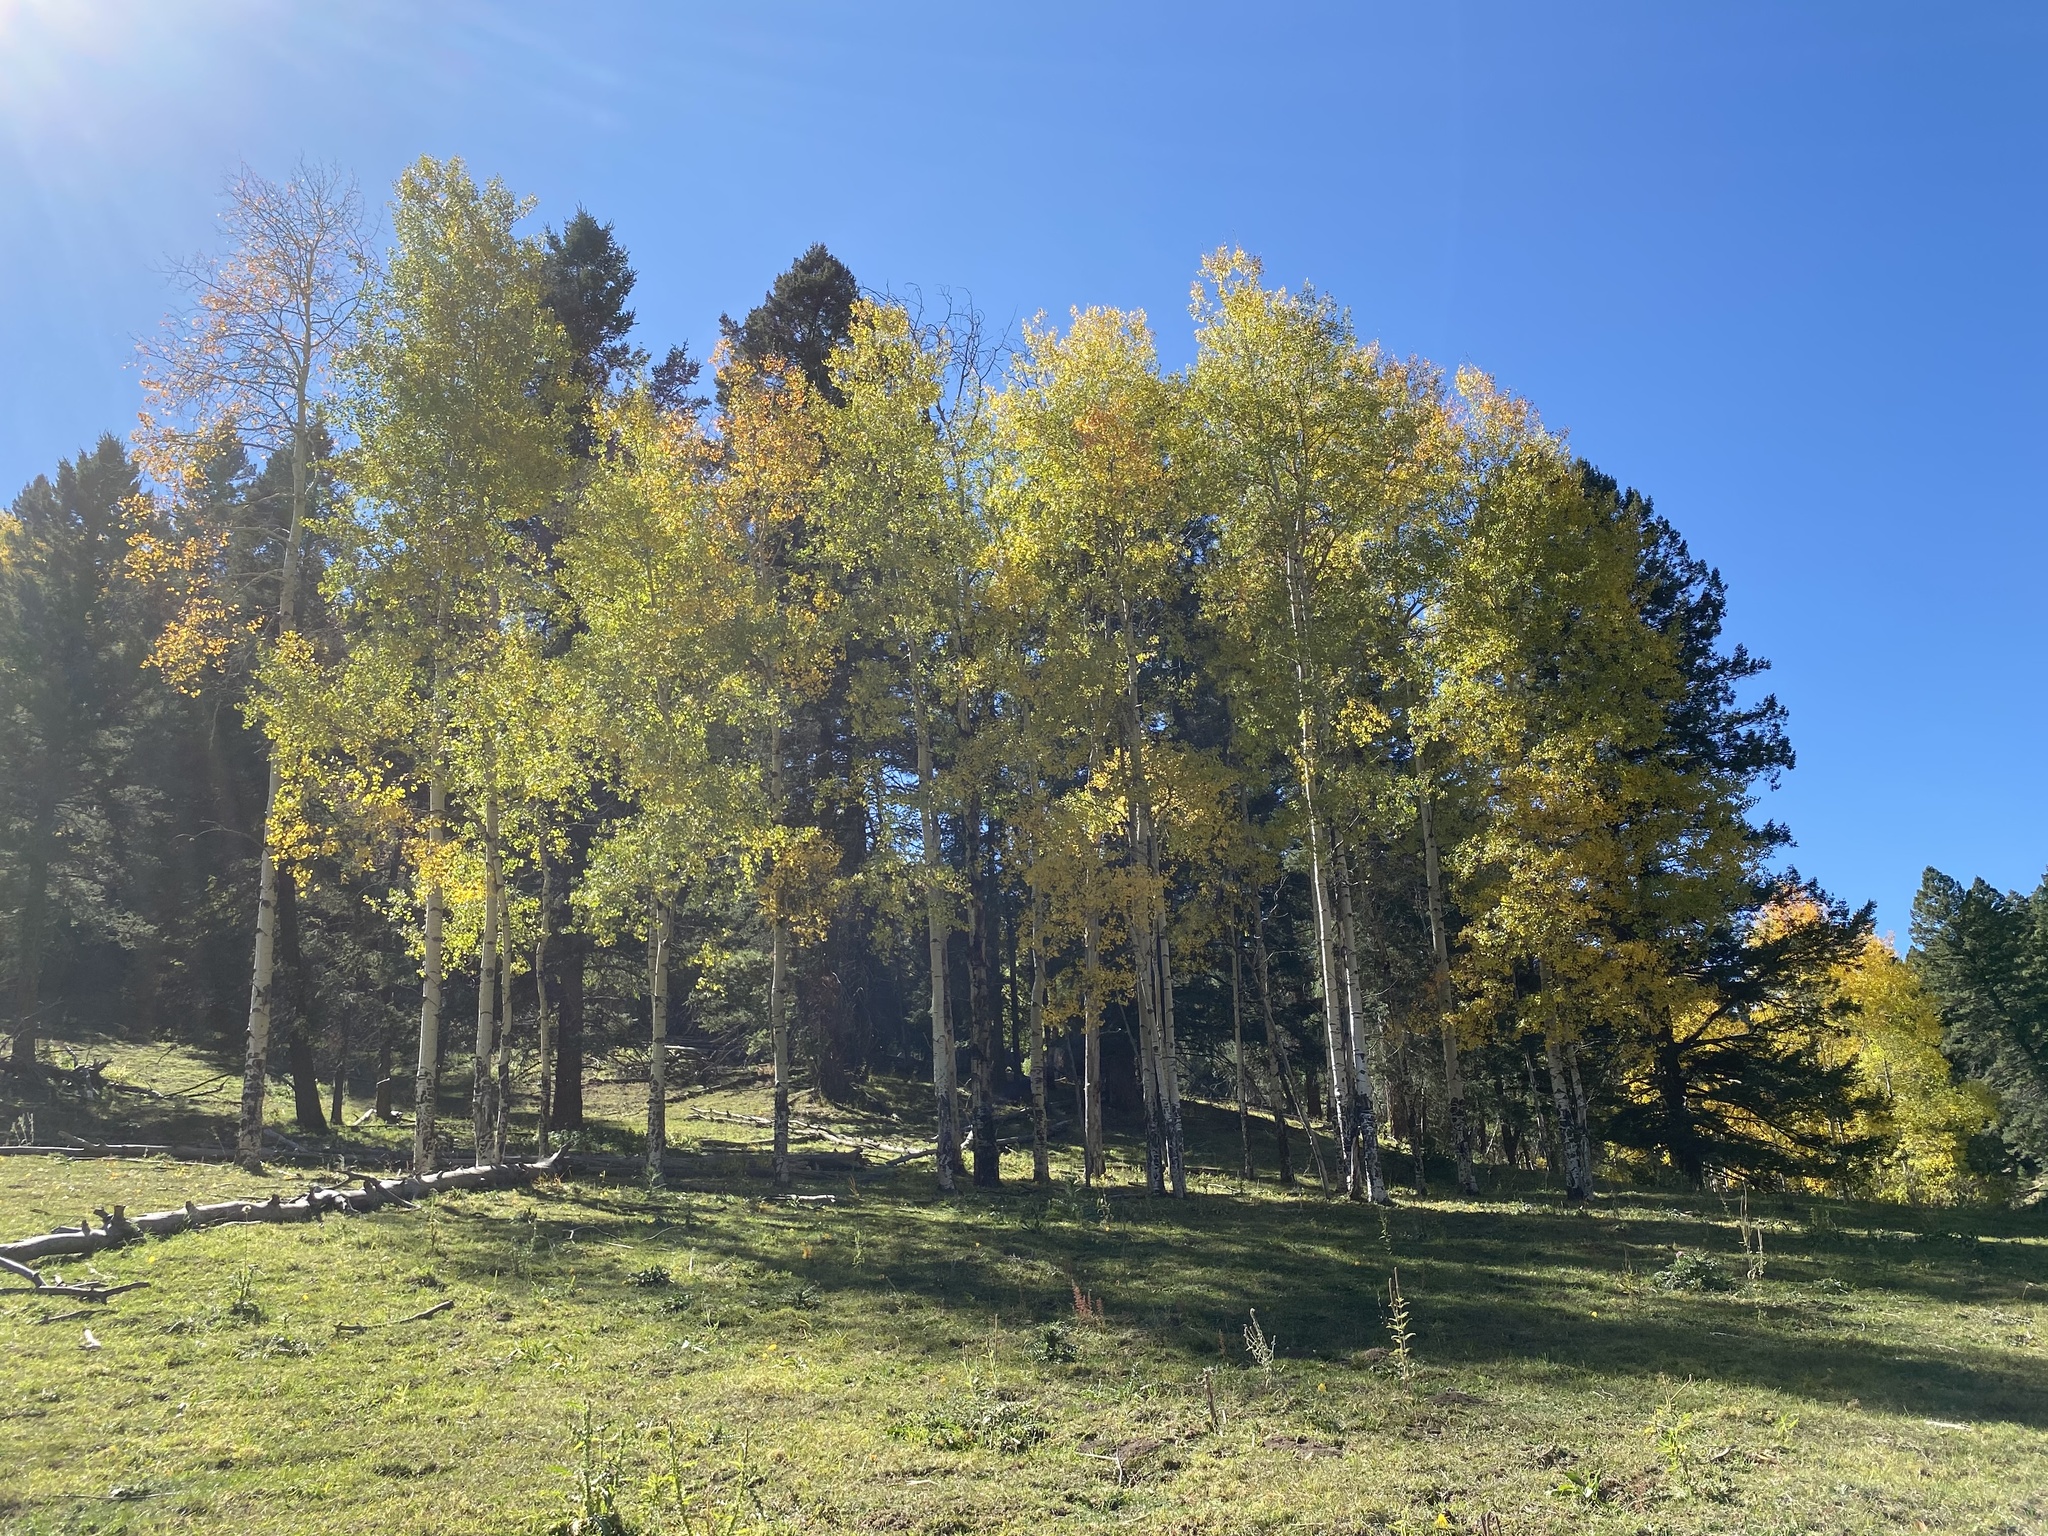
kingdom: Plantae
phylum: Tracheophyta
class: Magnoliopsida
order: Malpighiales
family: Salicaceae
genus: Populus
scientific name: Populus tremuloides
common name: Quaking aspen
